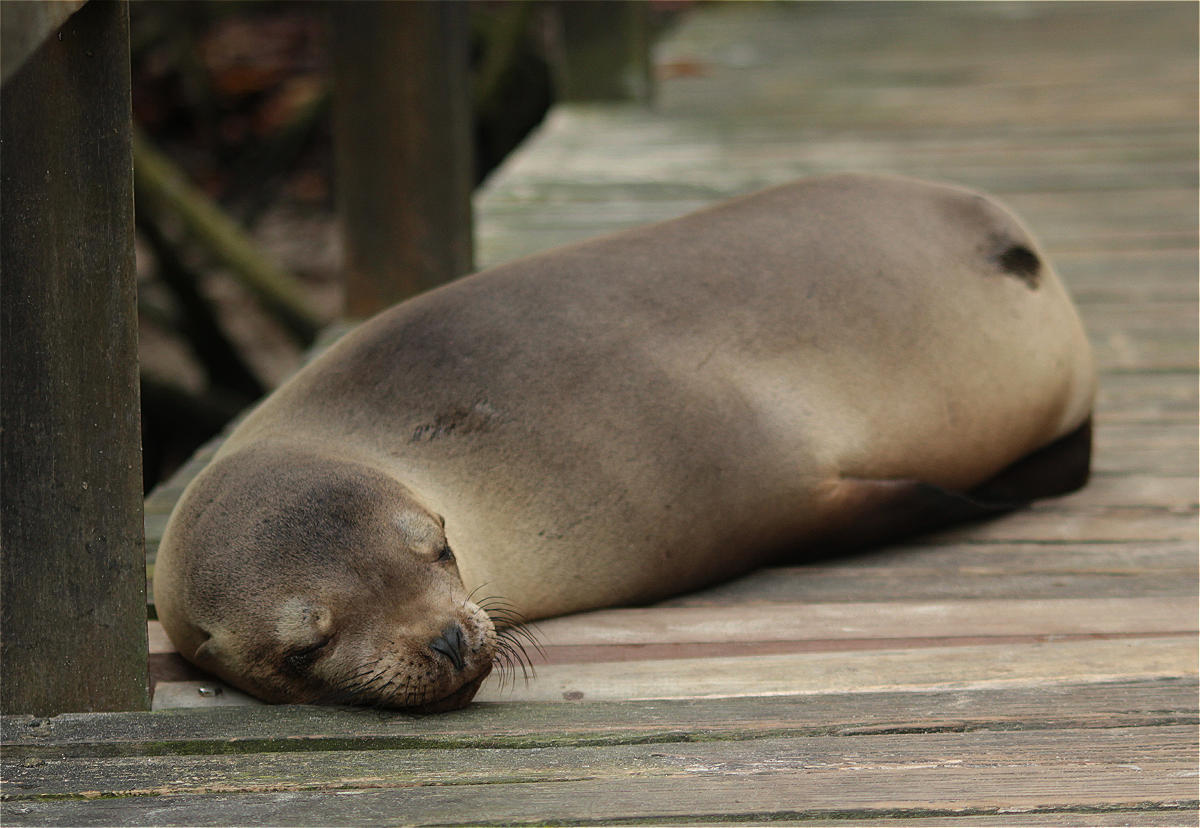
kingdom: Animalia
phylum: Chordata
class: Mammalia
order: Carnivora
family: Otariidae
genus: Zalophus
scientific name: Zalophus wollebaeki
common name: Galapagos sea lion
